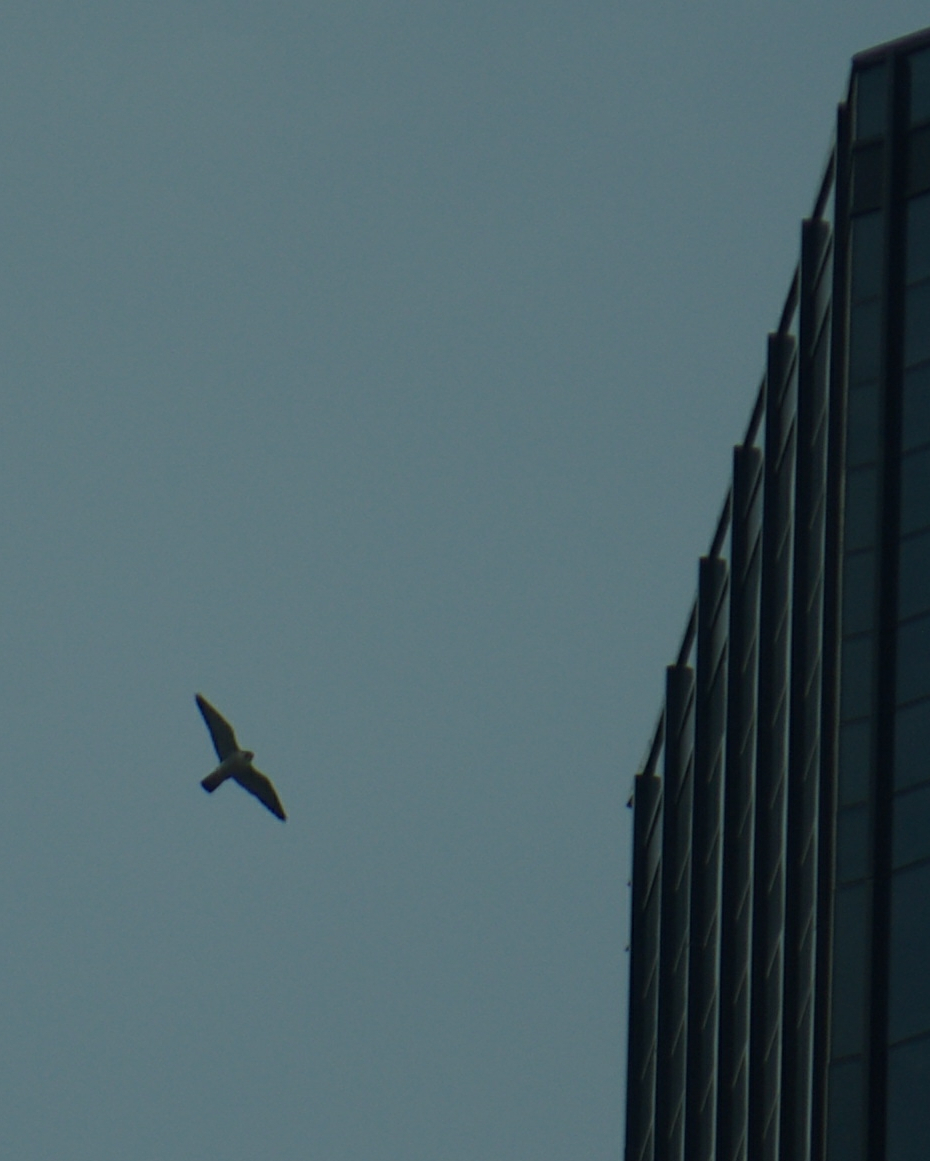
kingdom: Animalia
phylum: Chordata
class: Aves
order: Falconiformes
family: Falconidae
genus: Falco
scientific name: Falco peregrinus
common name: Peregrine falcon
